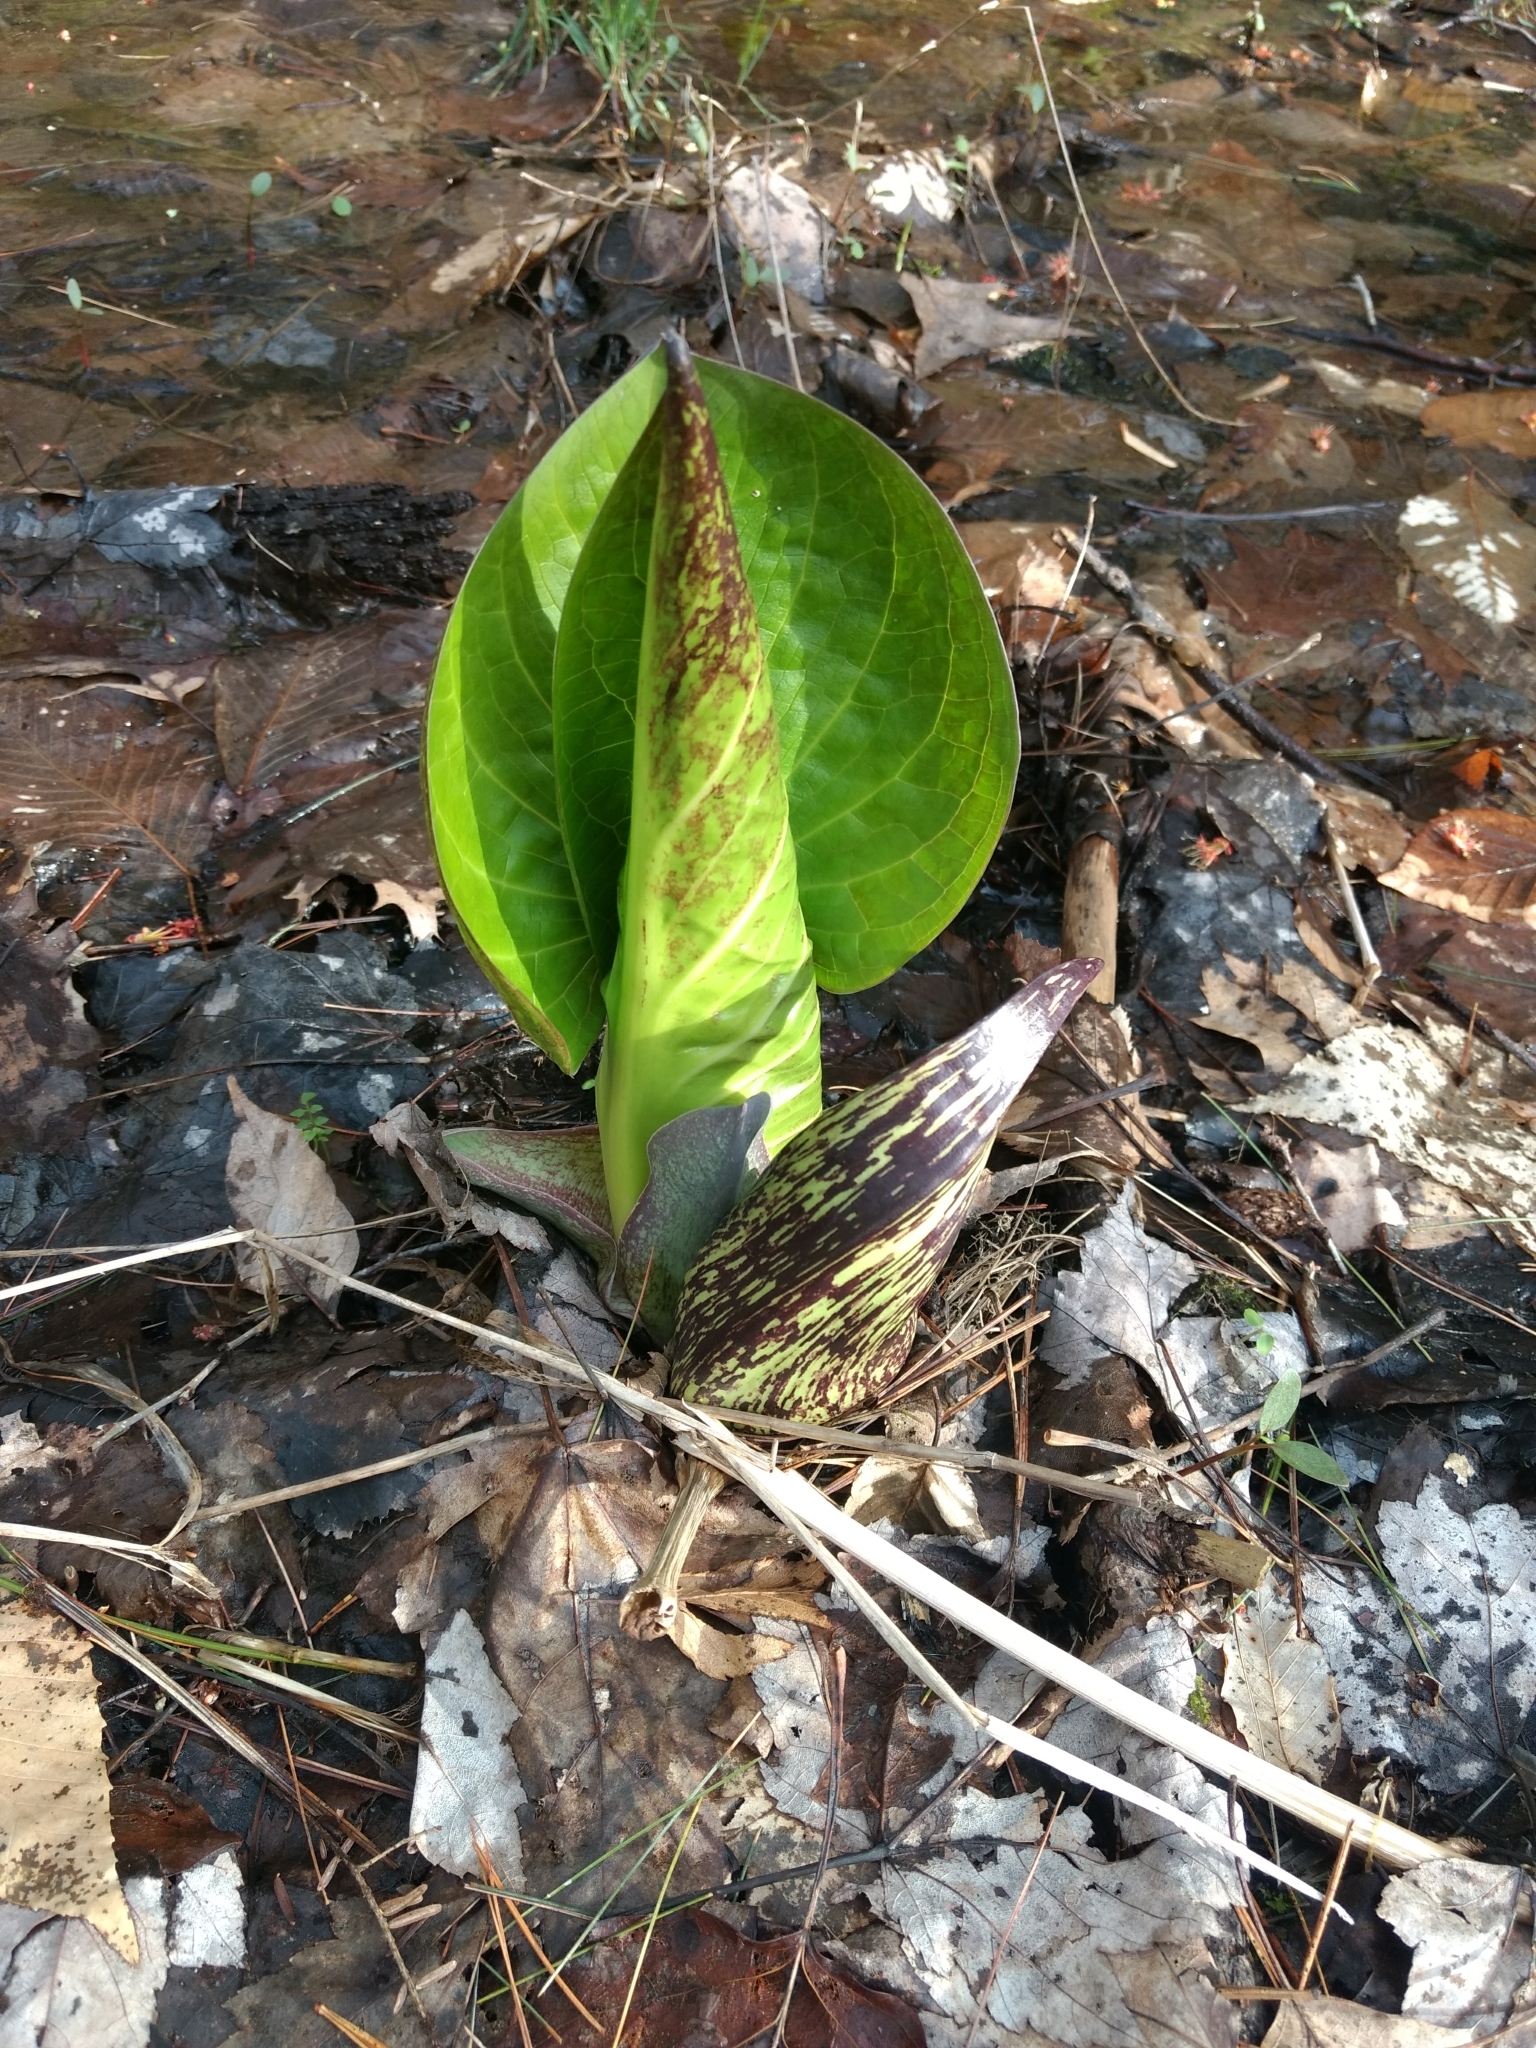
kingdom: Plantae
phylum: Tracheophyta
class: Liliopsida
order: Alismatales
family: Araceae
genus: Symplocarpus
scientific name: Symplocarpus foetidus
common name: Eastern skunk cabbage
